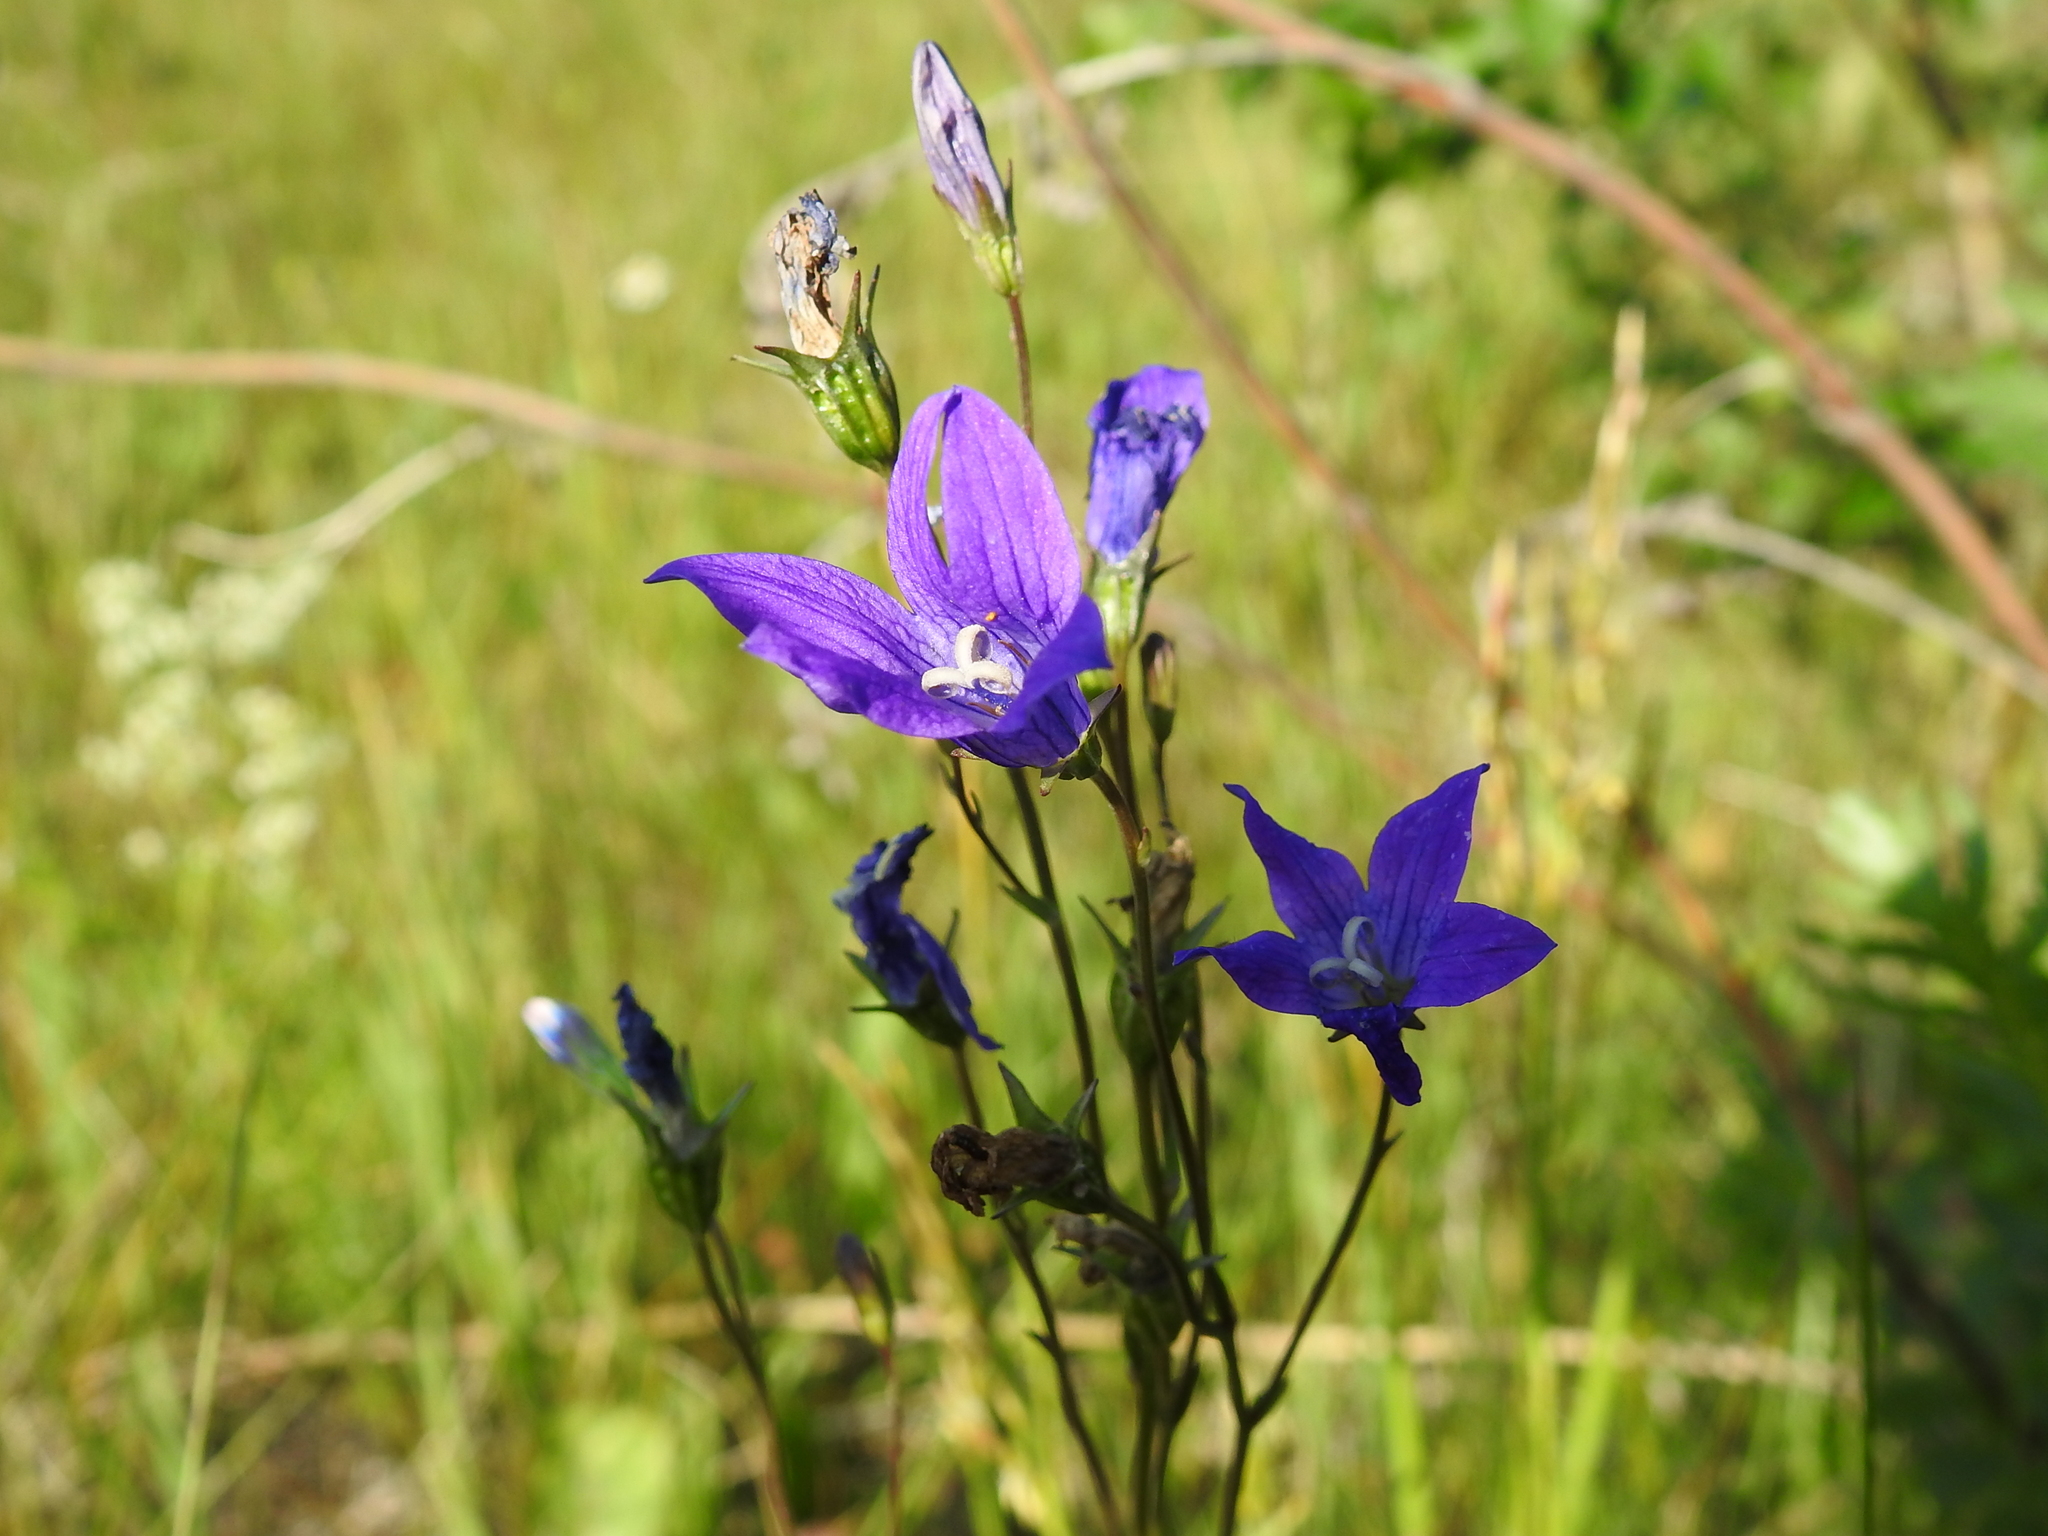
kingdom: Plantae
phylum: Tracheophyta
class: Magnoliopsida
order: Asterales
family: Campanulaceae
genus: Campanula
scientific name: Campanula patula
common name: Spreading bellflower
